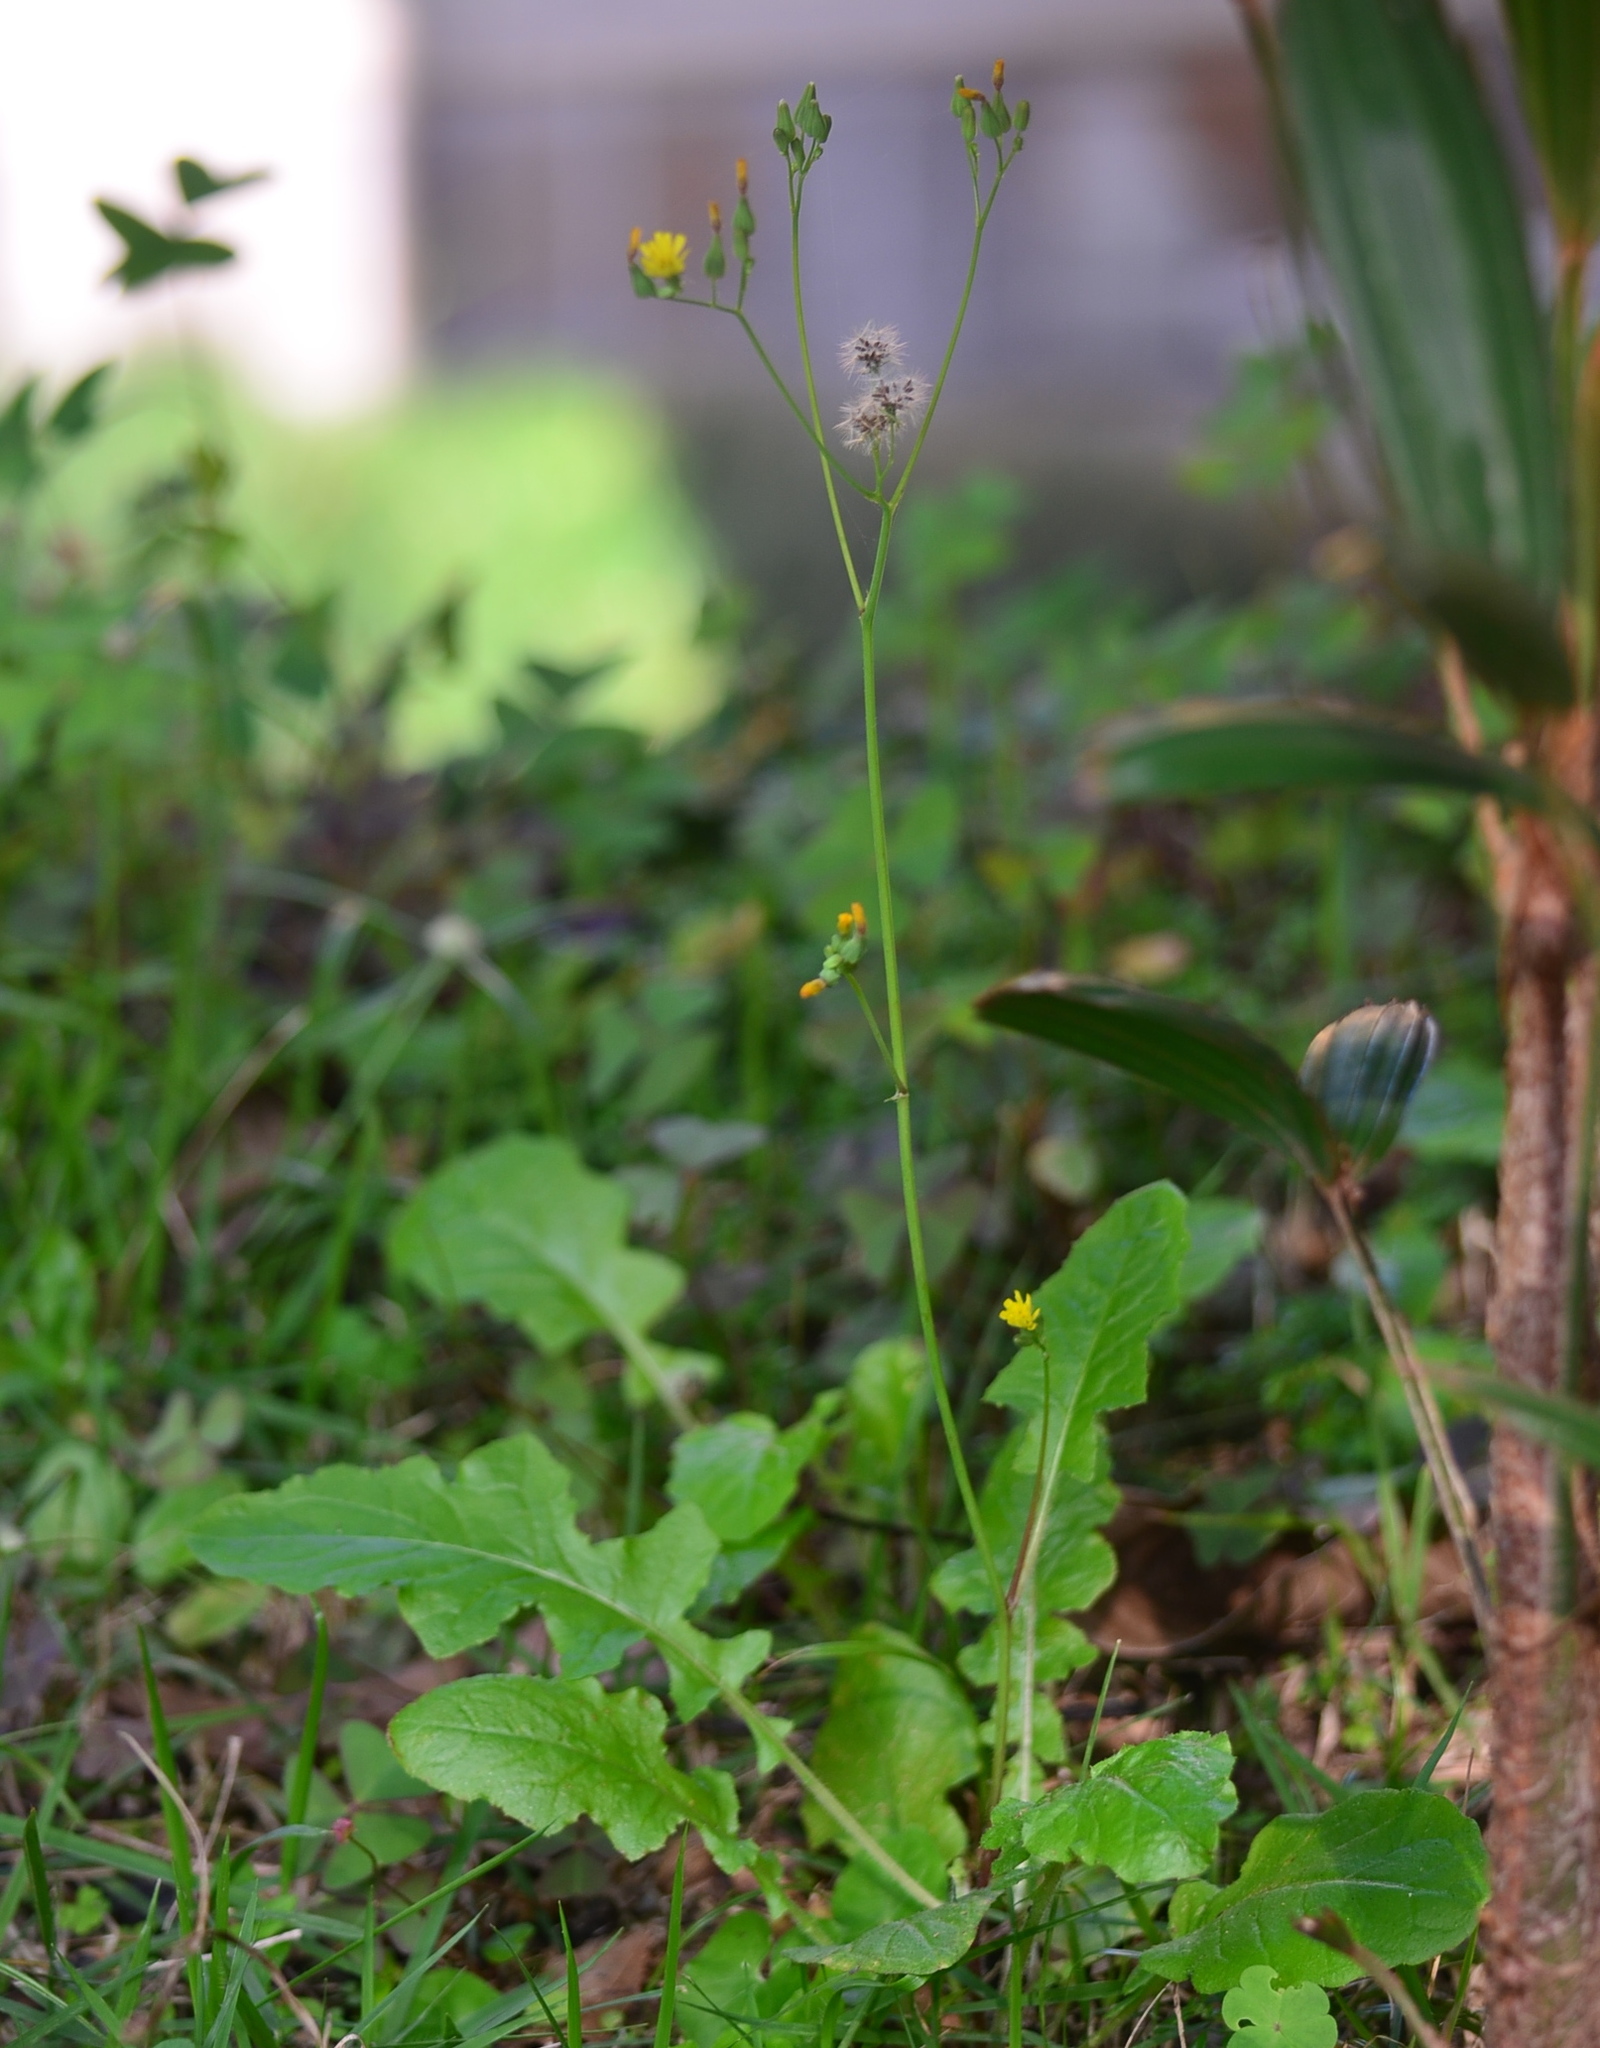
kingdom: Plantae
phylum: Tracheophyta
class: Magnoliopsida
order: Asterales
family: Asteraceae
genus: Youngia
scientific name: Youngia japonica
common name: Oriental false hawksbeard
